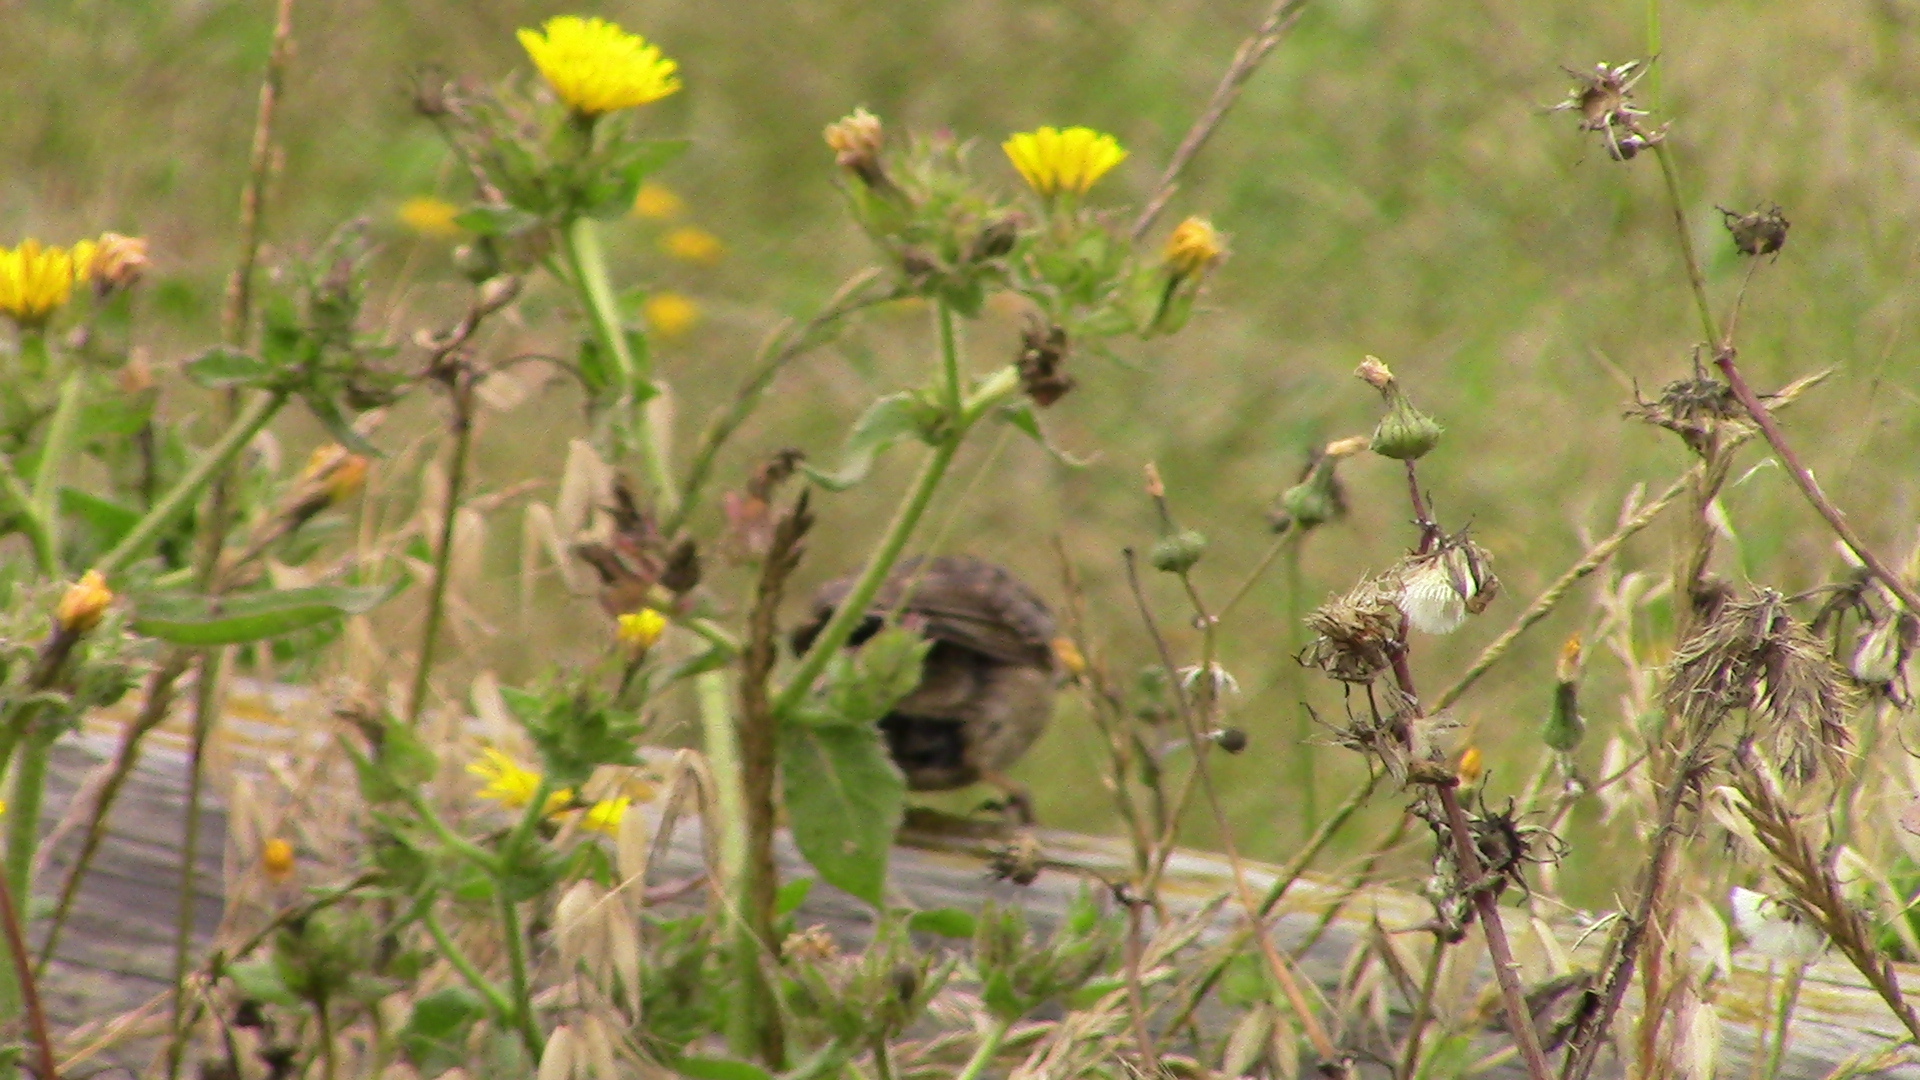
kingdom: Animalia
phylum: Chordata
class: Aves
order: Passeriformes
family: Passerellidae
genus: Zonotrichia
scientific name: Zonotrichia leucophrys
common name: White-crowned sparrow
